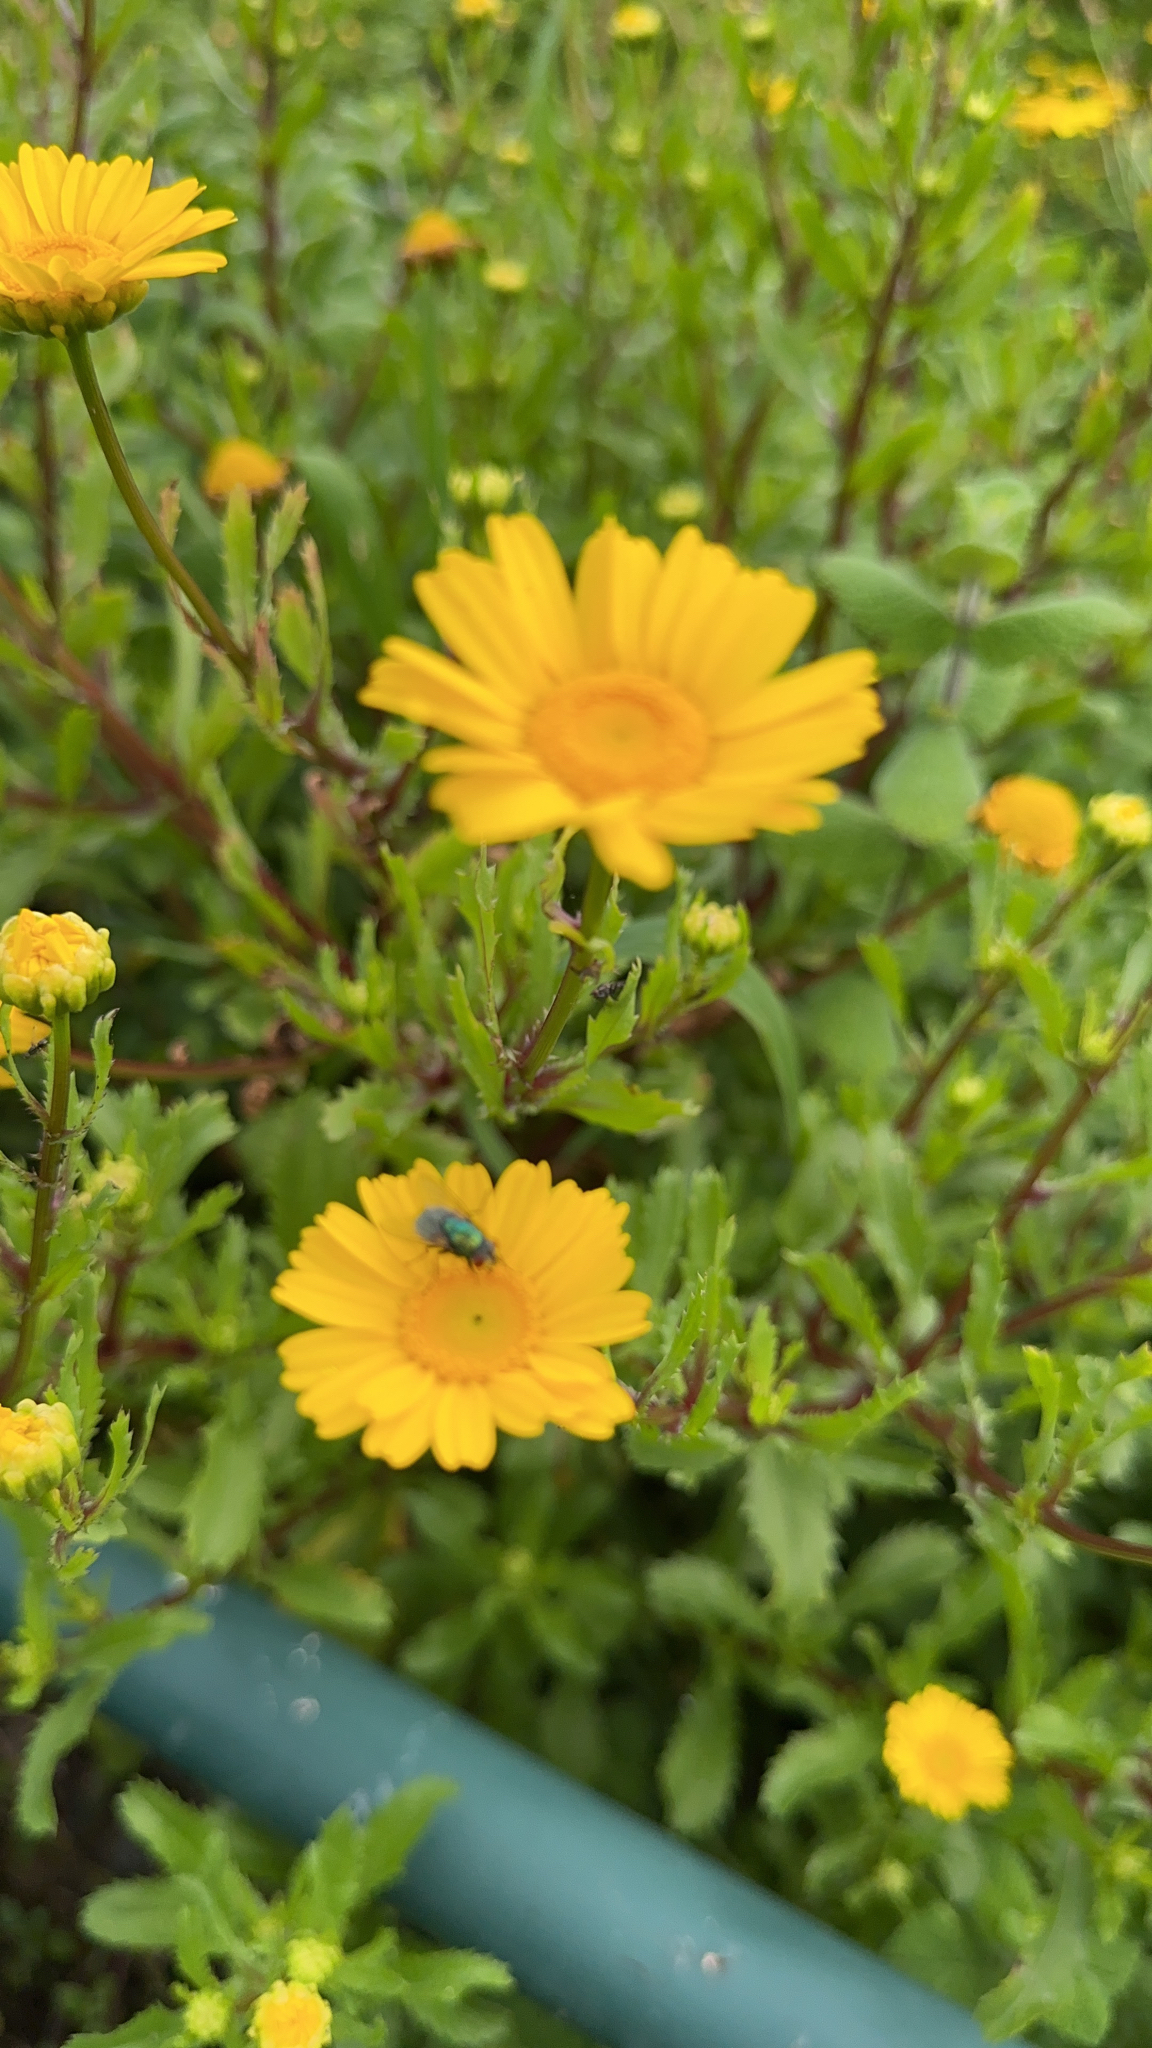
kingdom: Plantae
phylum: Tracheophyta
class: Magnoliopsida
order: Asterales
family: Asteraceae
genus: Coleostephus
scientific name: Coleostephus myconis
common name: Mediterranean marigold
